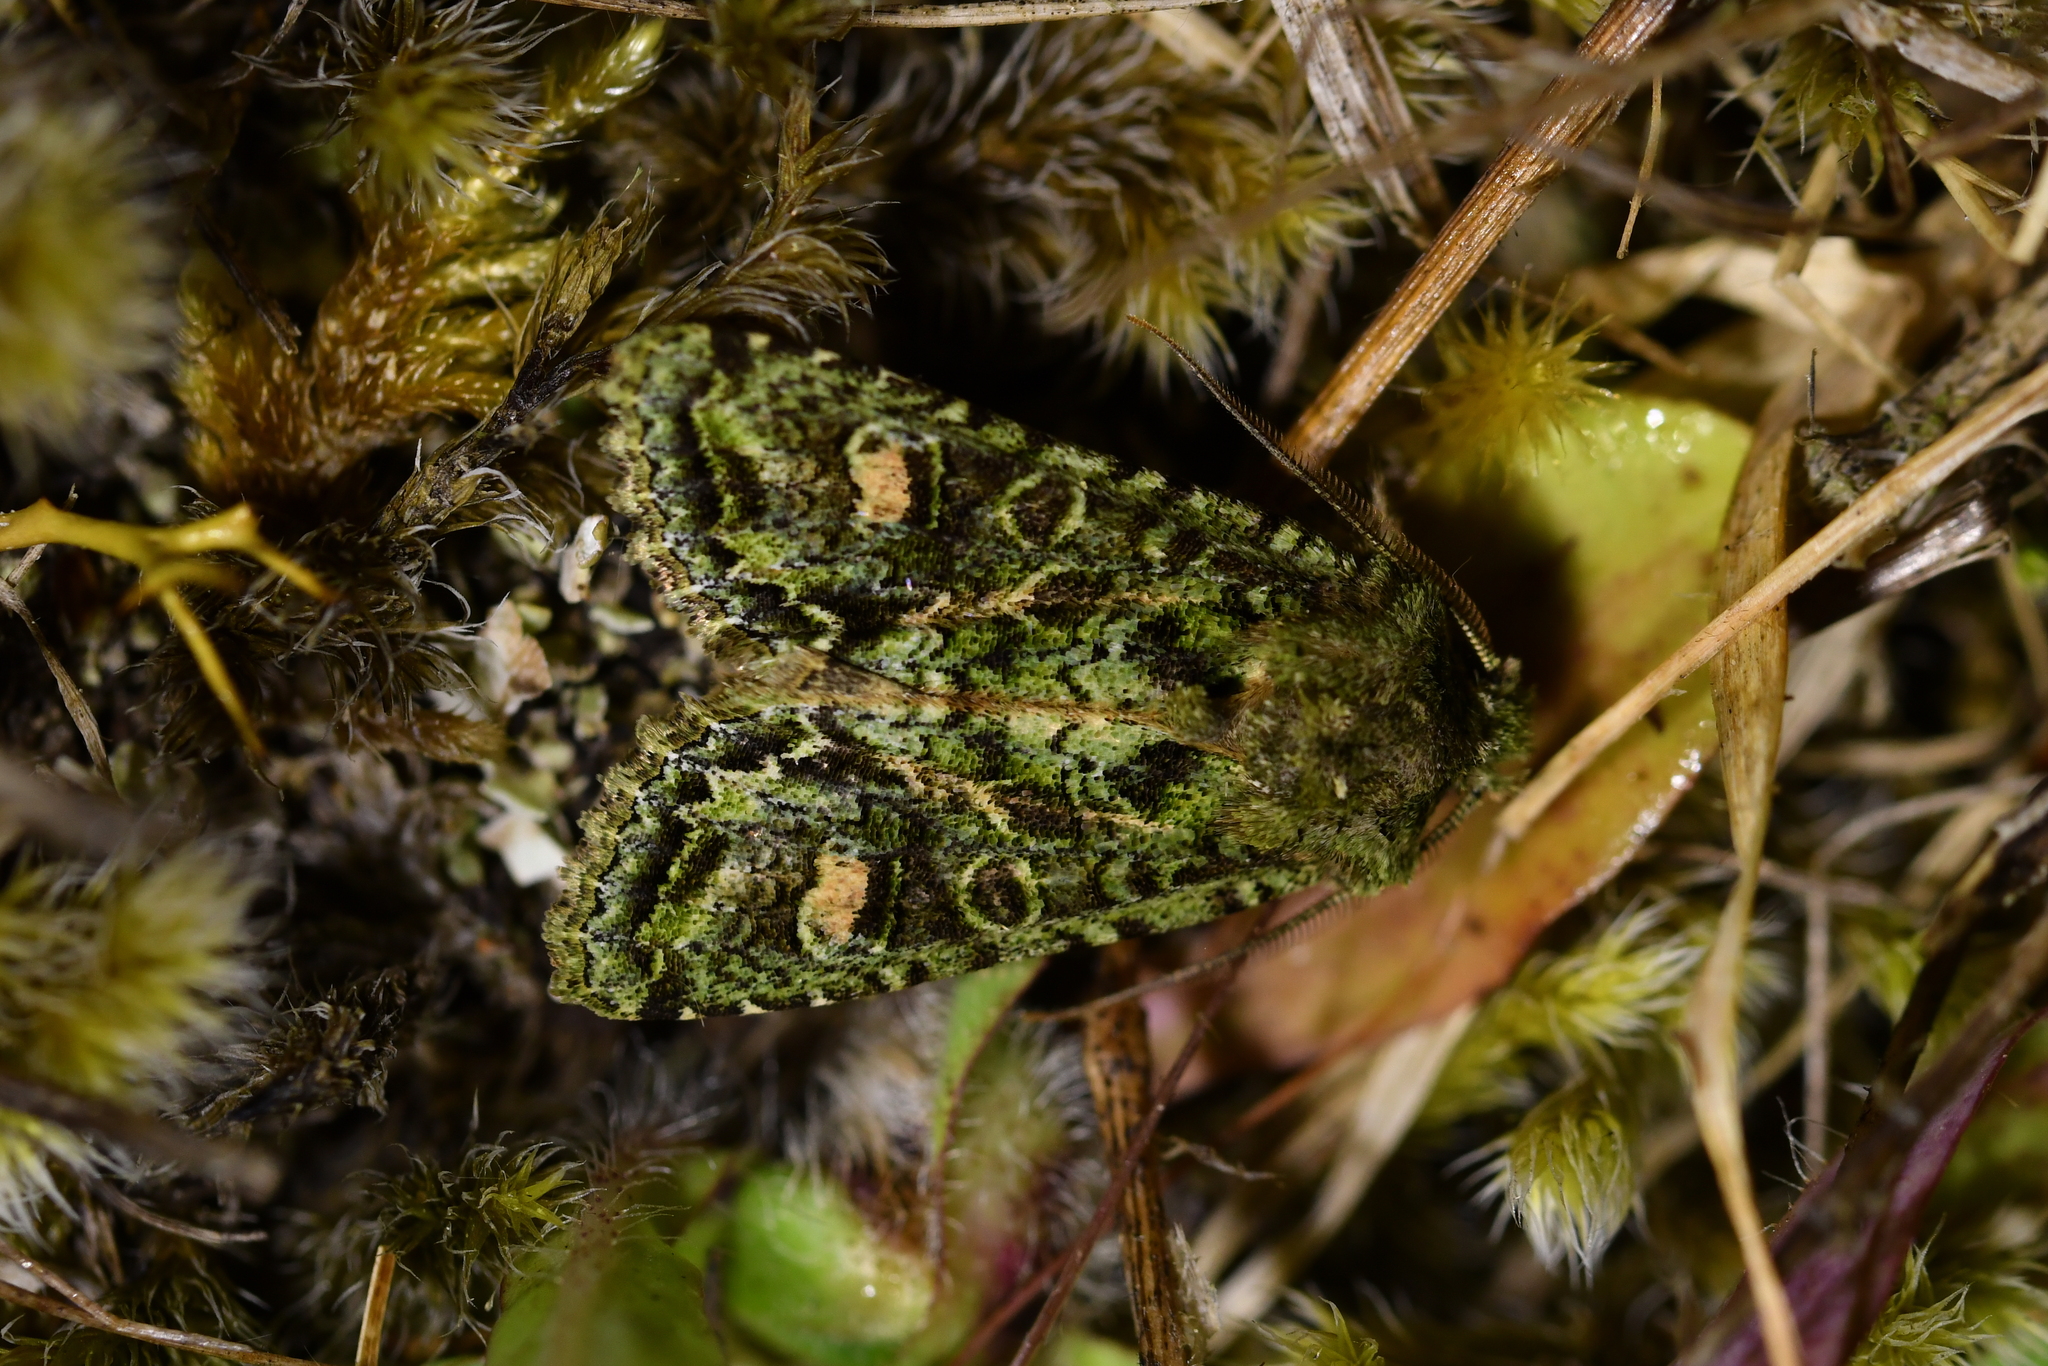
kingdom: Animalia
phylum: Arthropoda
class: Insecta
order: Lepidoptera
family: Noctuidae
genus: Ichneutica
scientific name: Ichneutica
